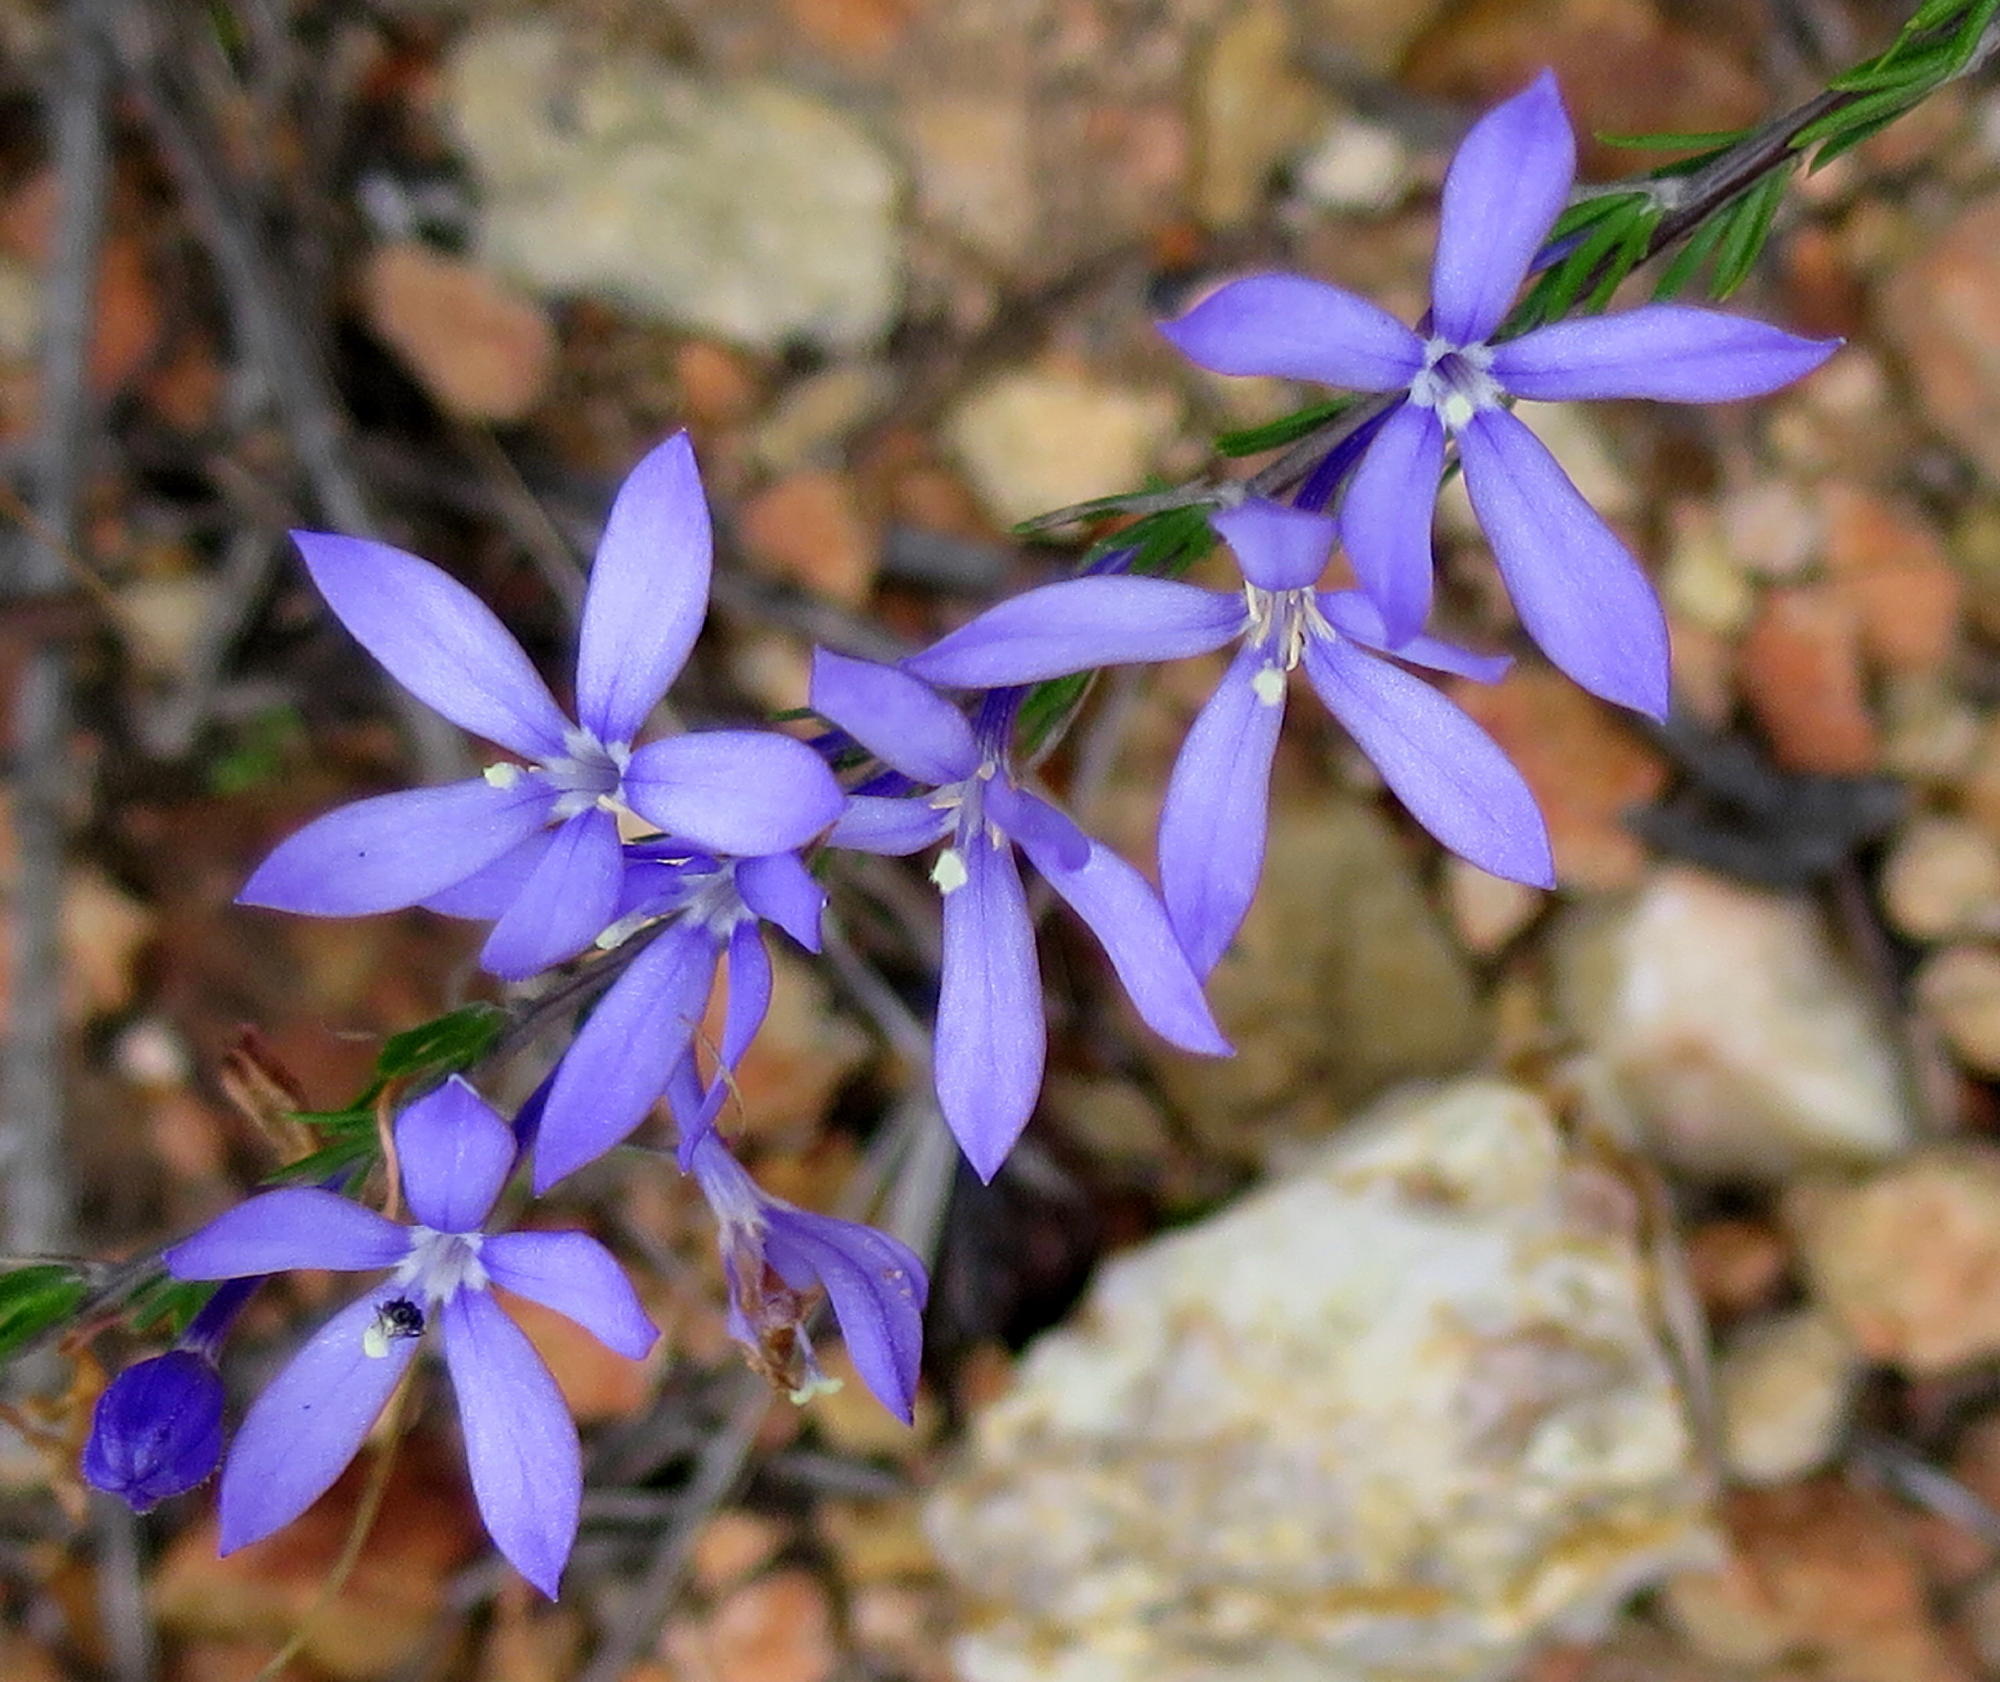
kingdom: Plantae
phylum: Tracheophyta
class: Magnoliopsida
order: Asterales
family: Campanulaceae
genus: Theilera
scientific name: Theilera guthriei
